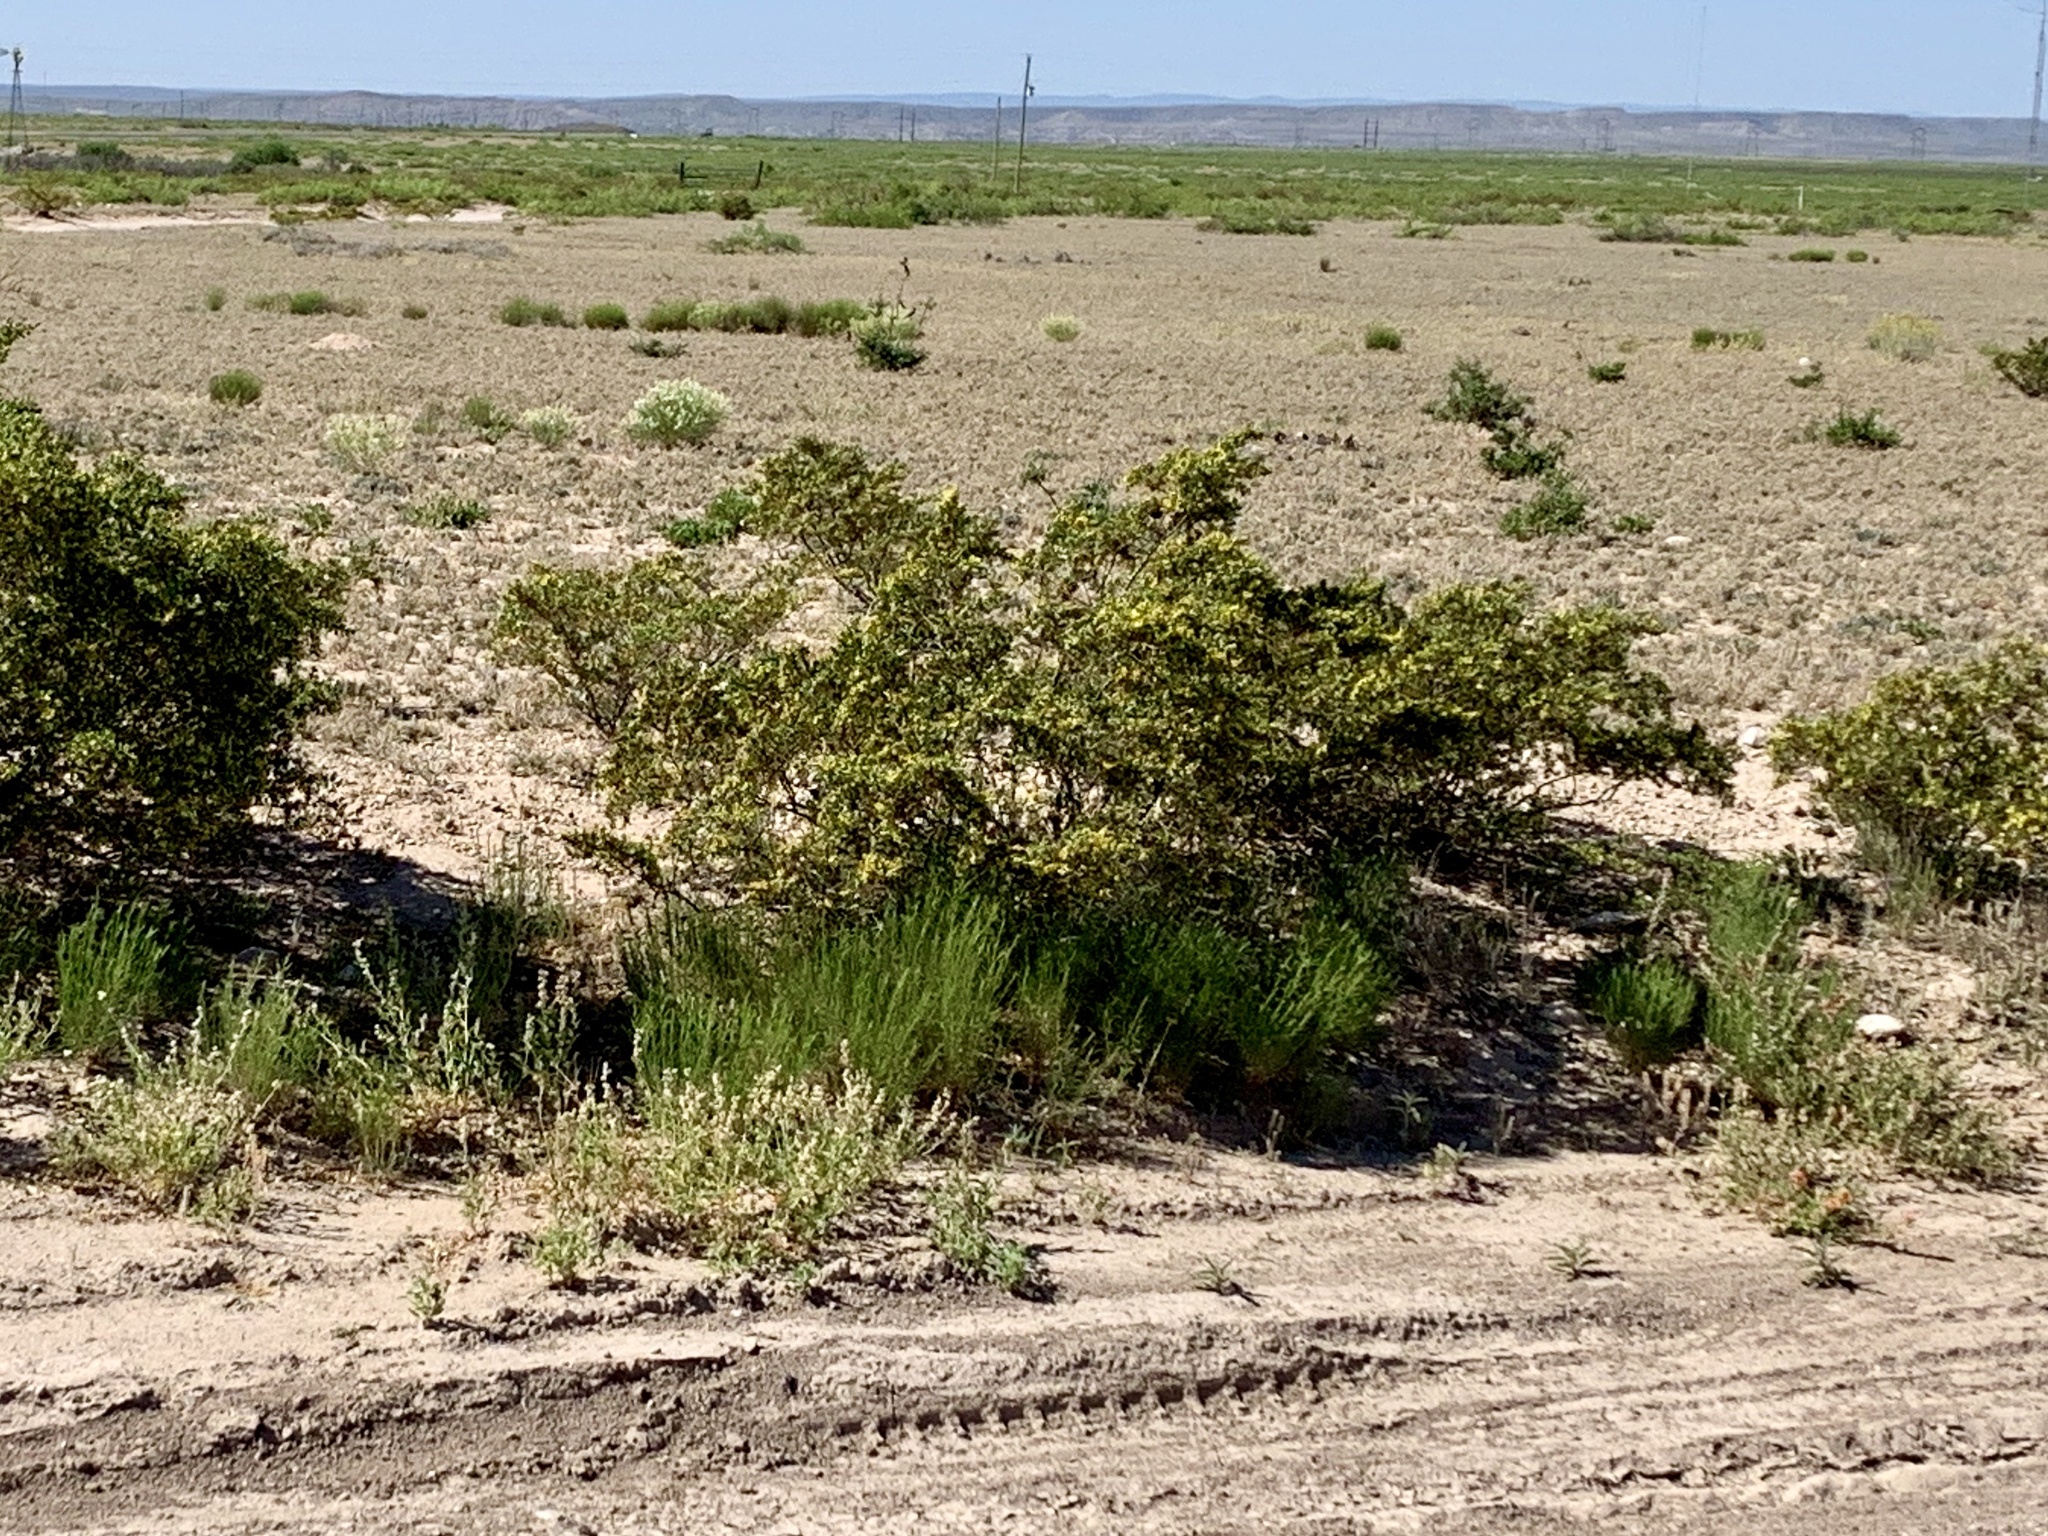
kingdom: Plantae
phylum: Tracheophyta
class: Magnoliopsida
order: Zygophyllales
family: Zygophyllaceae
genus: Larrea
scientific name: Larrea tridentata
